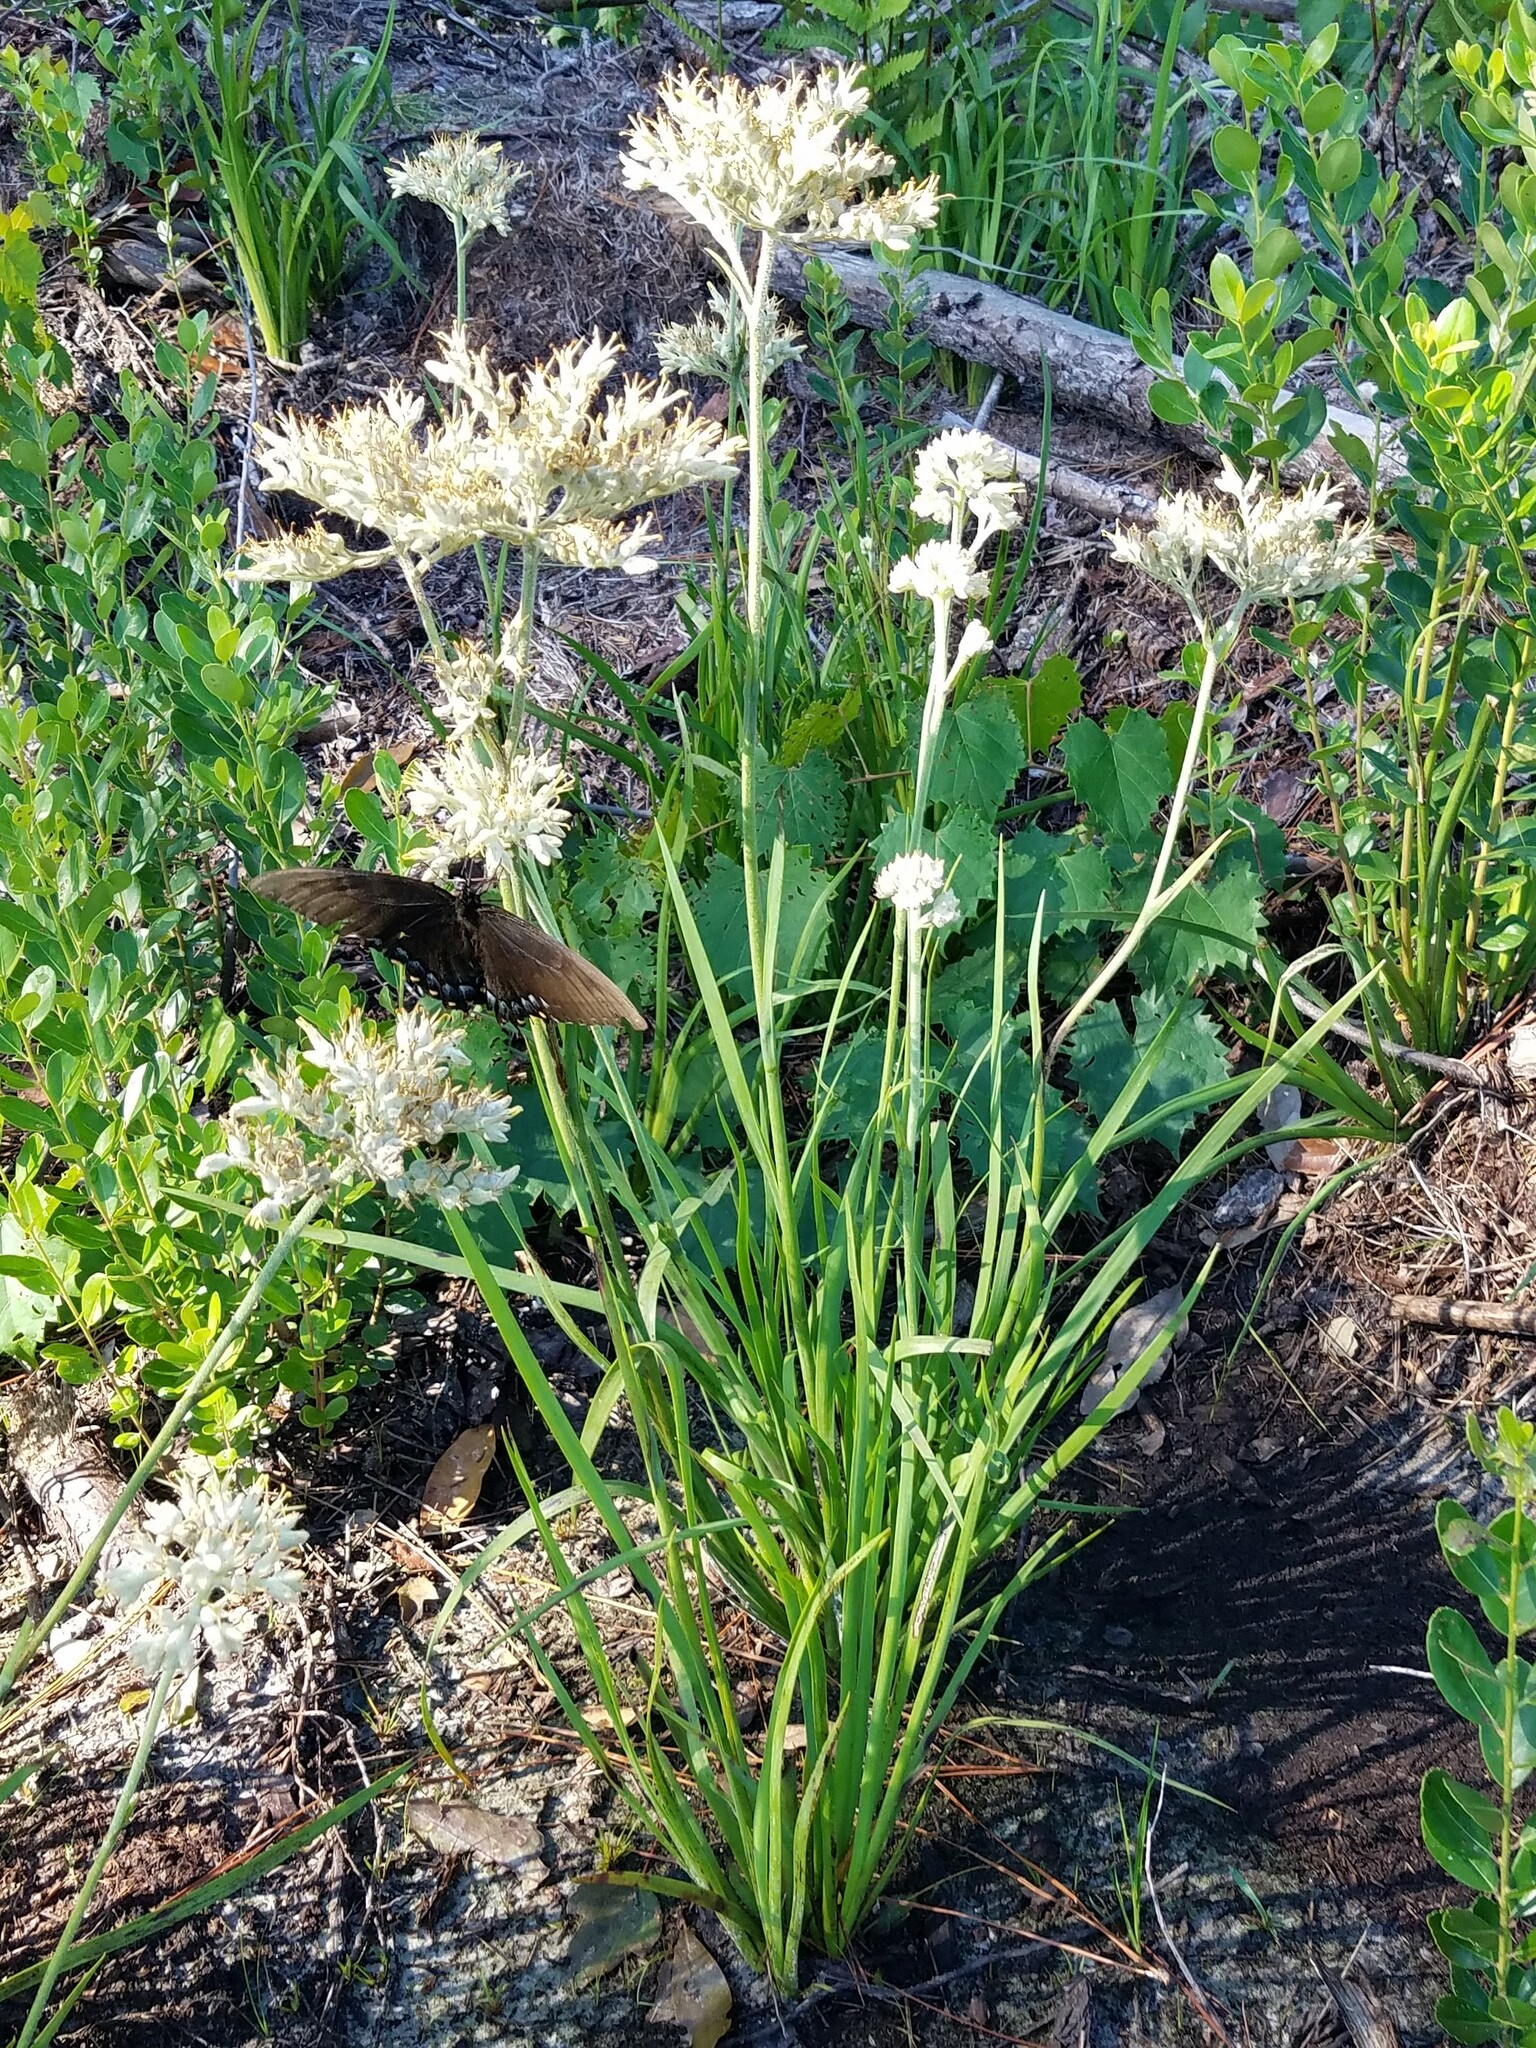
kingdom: Animalia
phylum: Arthropoda
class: Insecta
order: Lepidoptera
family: Papilionidae
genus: Papilio
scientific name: Papilio glaucus
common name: Tiger swallowtail
